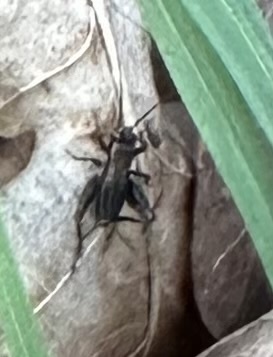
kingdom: Animalia
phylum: Arthropoda
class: Insecta
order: Orthoptera
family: Trigonidiidae
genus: Nemobius
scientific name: Nemobius sylvestris
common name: Wood-cricket
